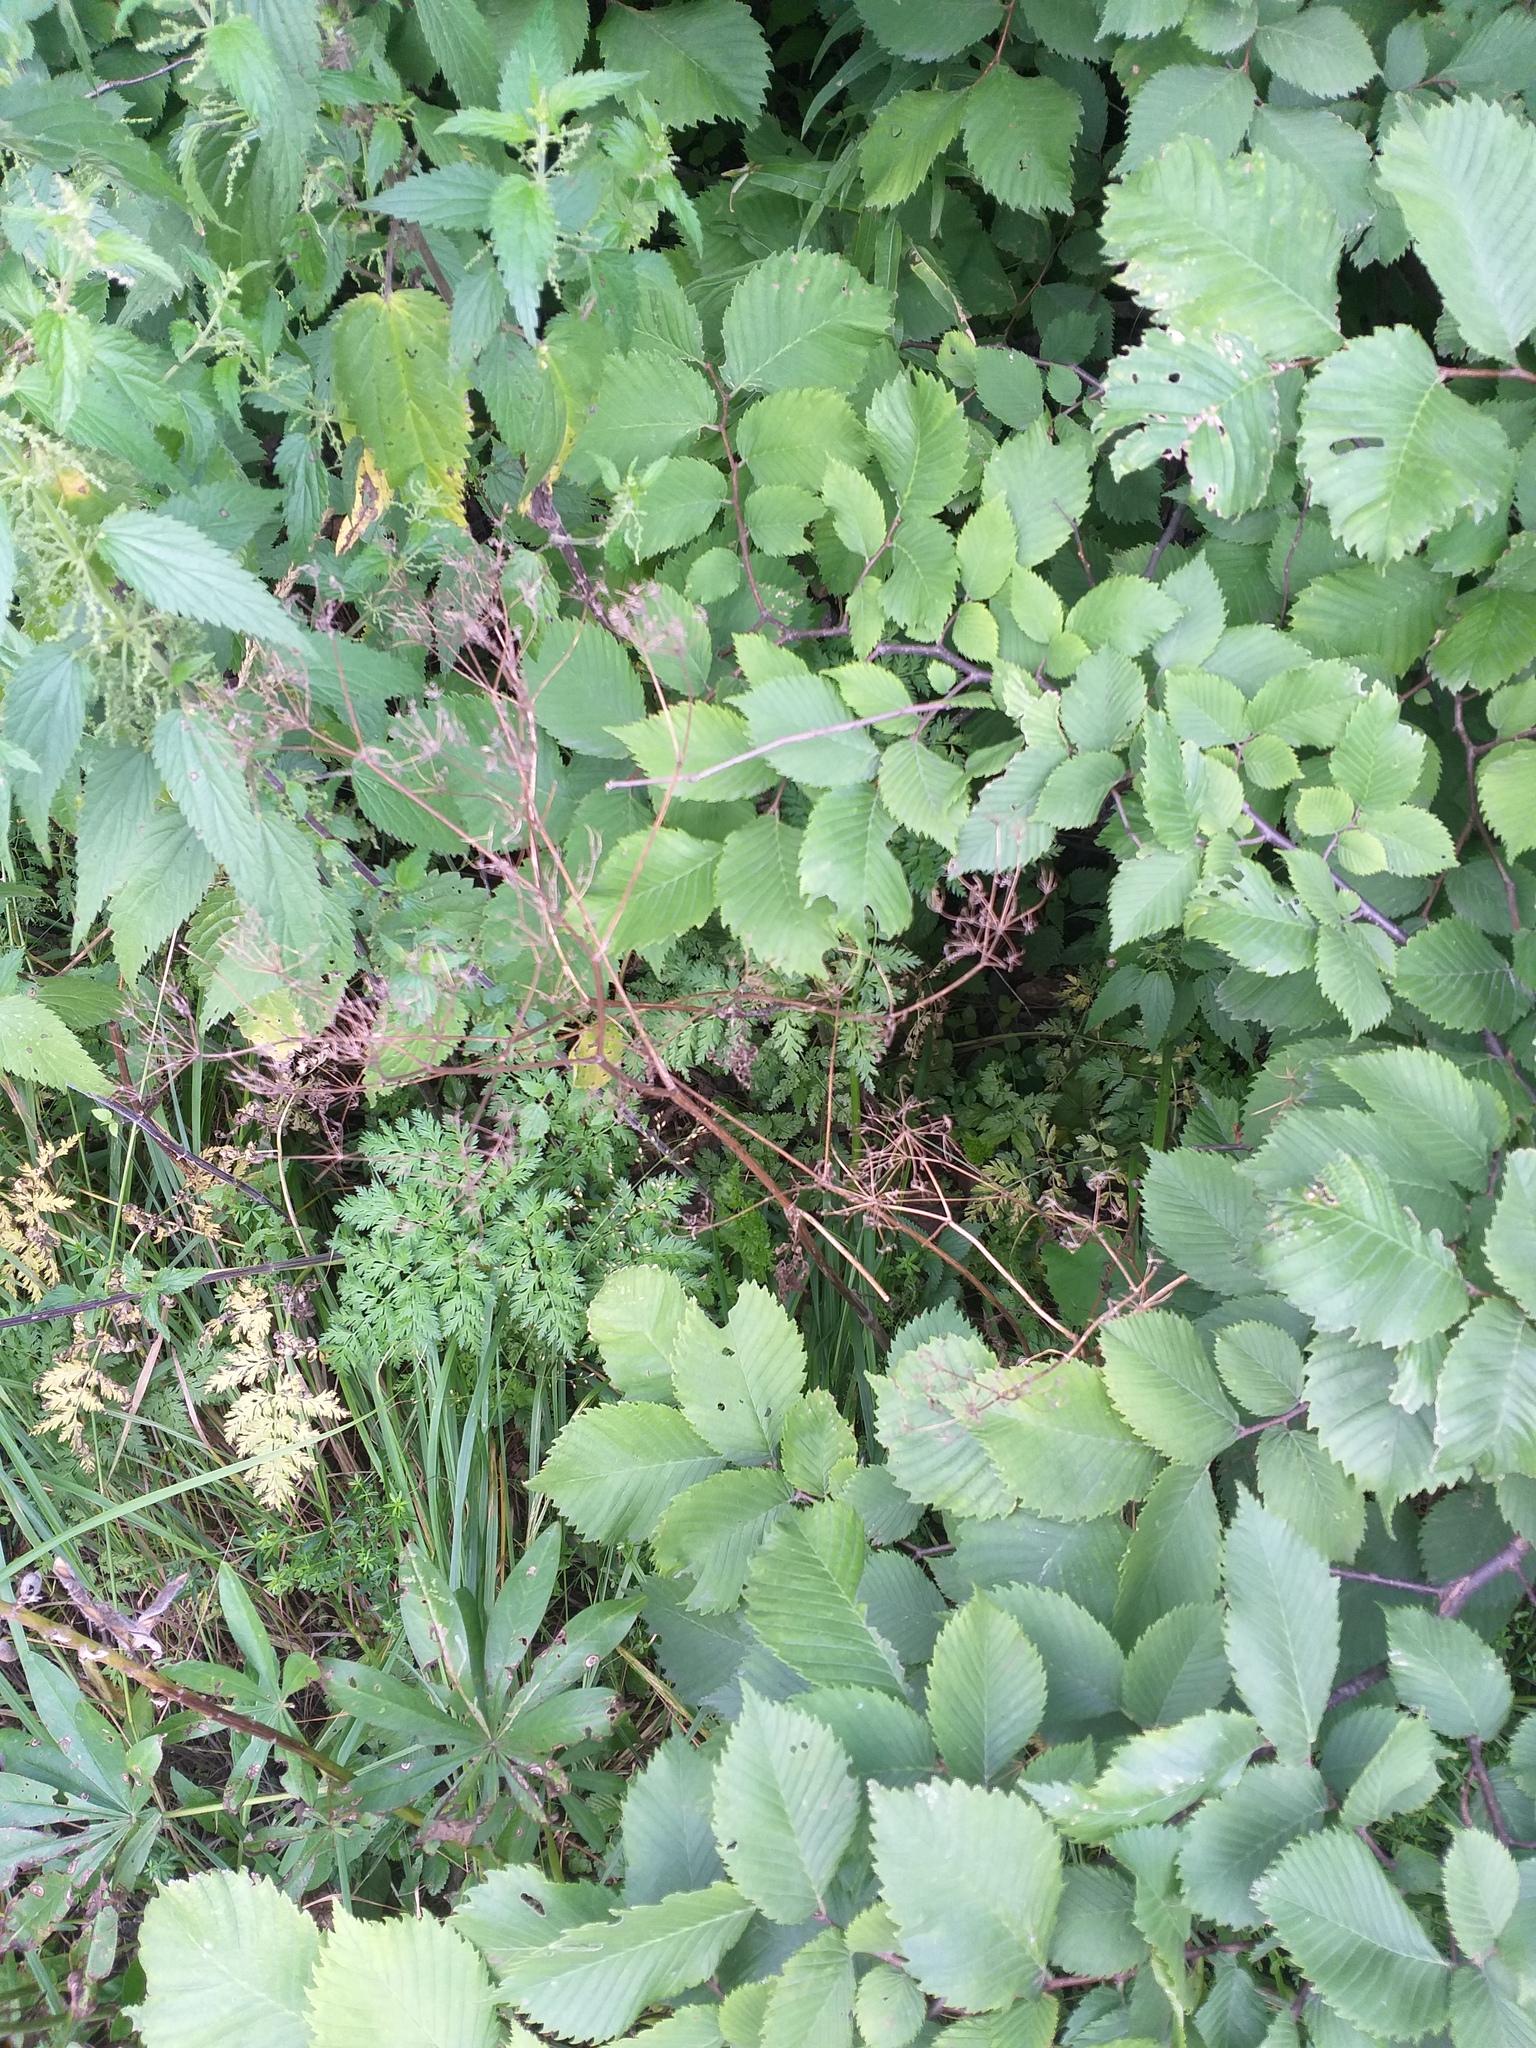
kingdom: Plantae
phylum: Tracheophyta
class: Magnoliopsida
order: Apiales
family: Apiaceae
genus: Anthriscus
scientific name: Anthriscus sylvestris
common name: Cow parsley
